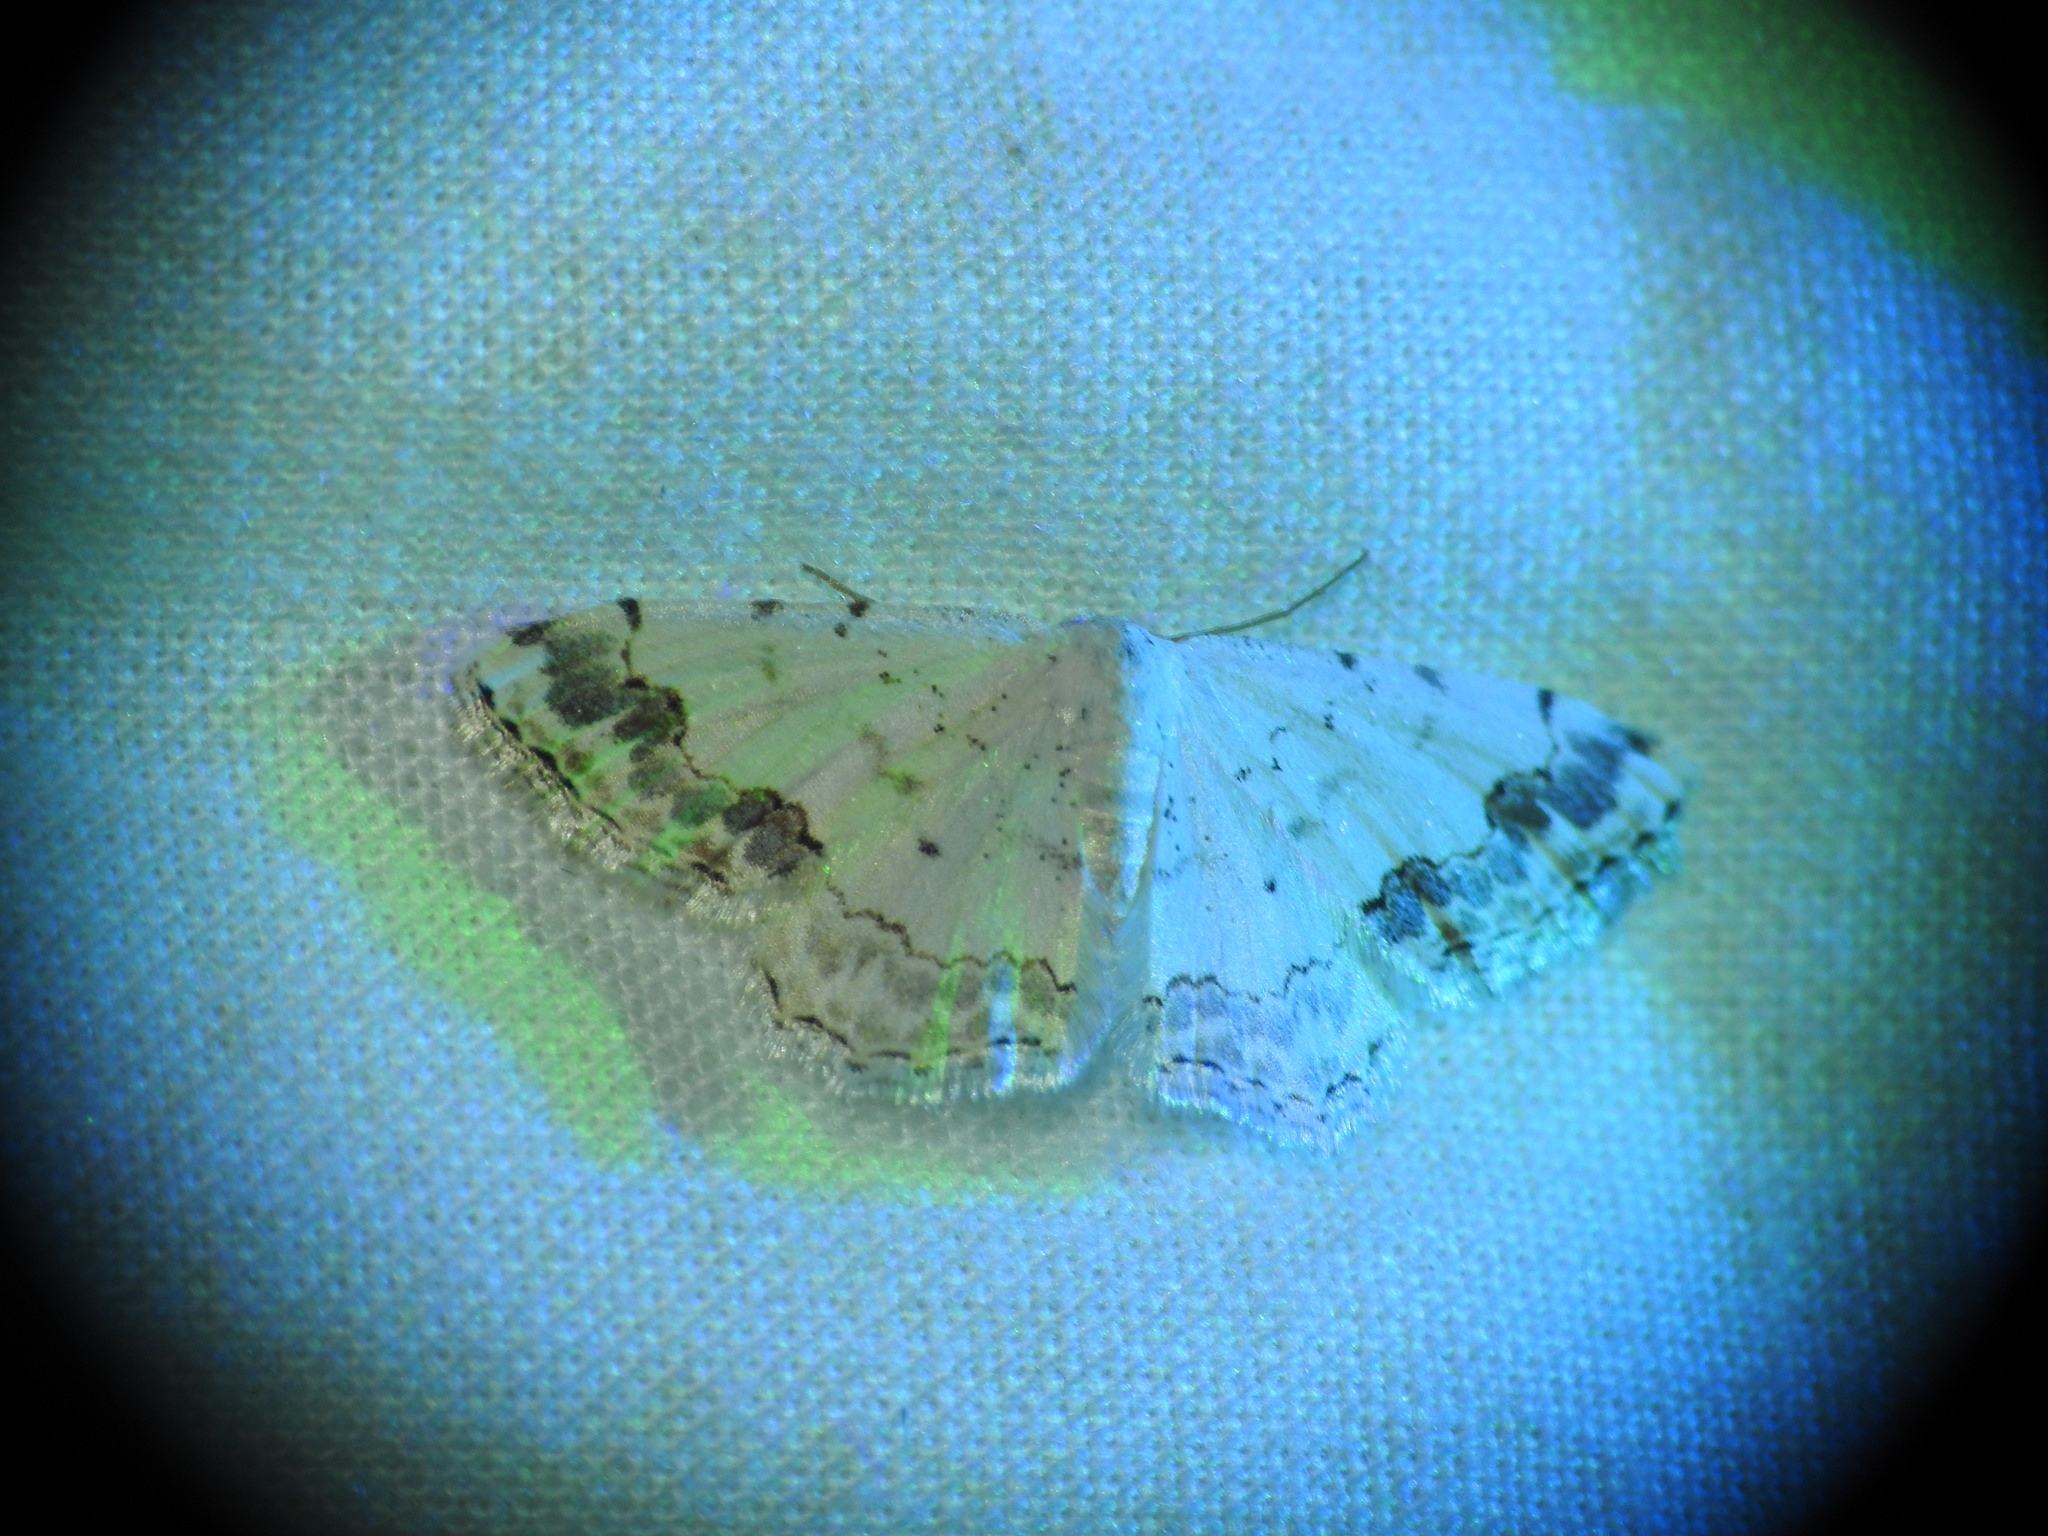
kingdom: Animalia
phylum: Arthropoda
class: Insecta
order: Lepidoptera
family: Geometridae
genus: Scopula
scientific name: Scopula decorata
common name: Middle lace border
